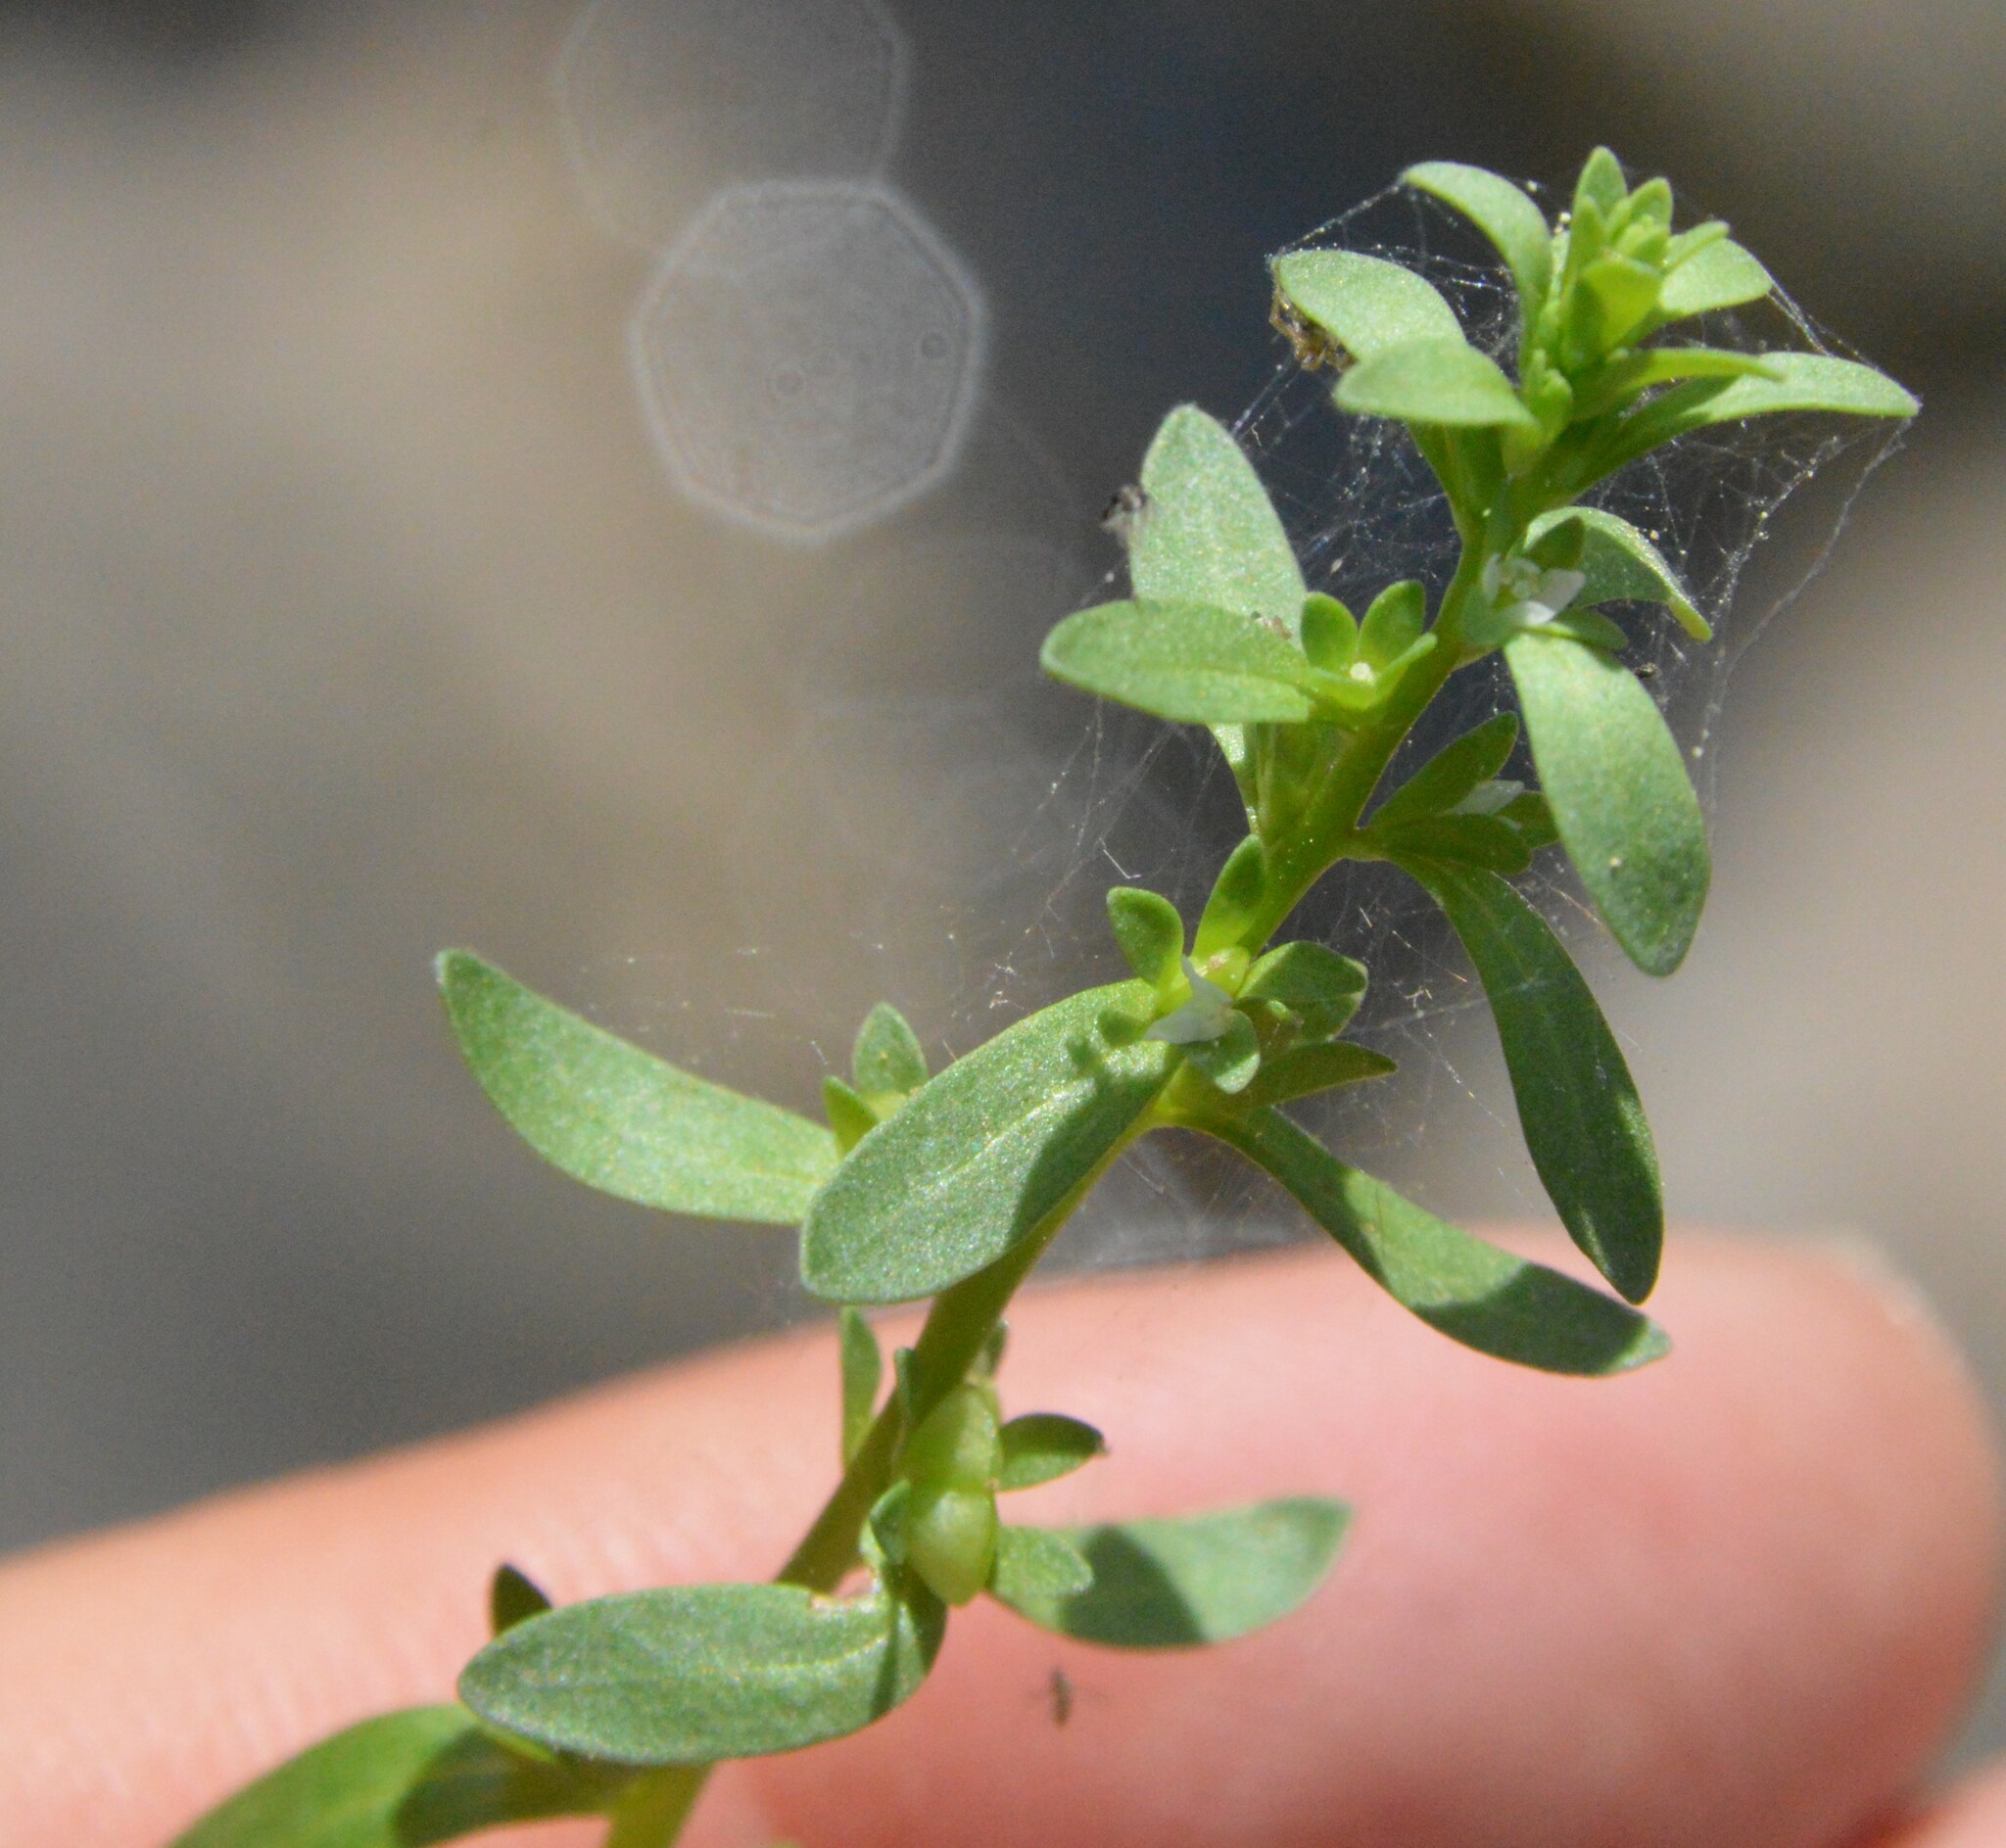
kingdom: Plantae
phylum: Tracheophyta
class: Magnoliopsida
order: Lamiales
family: Plantaginaceae
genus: Veronica
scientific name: Veronica peregrina
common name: Neckweed
